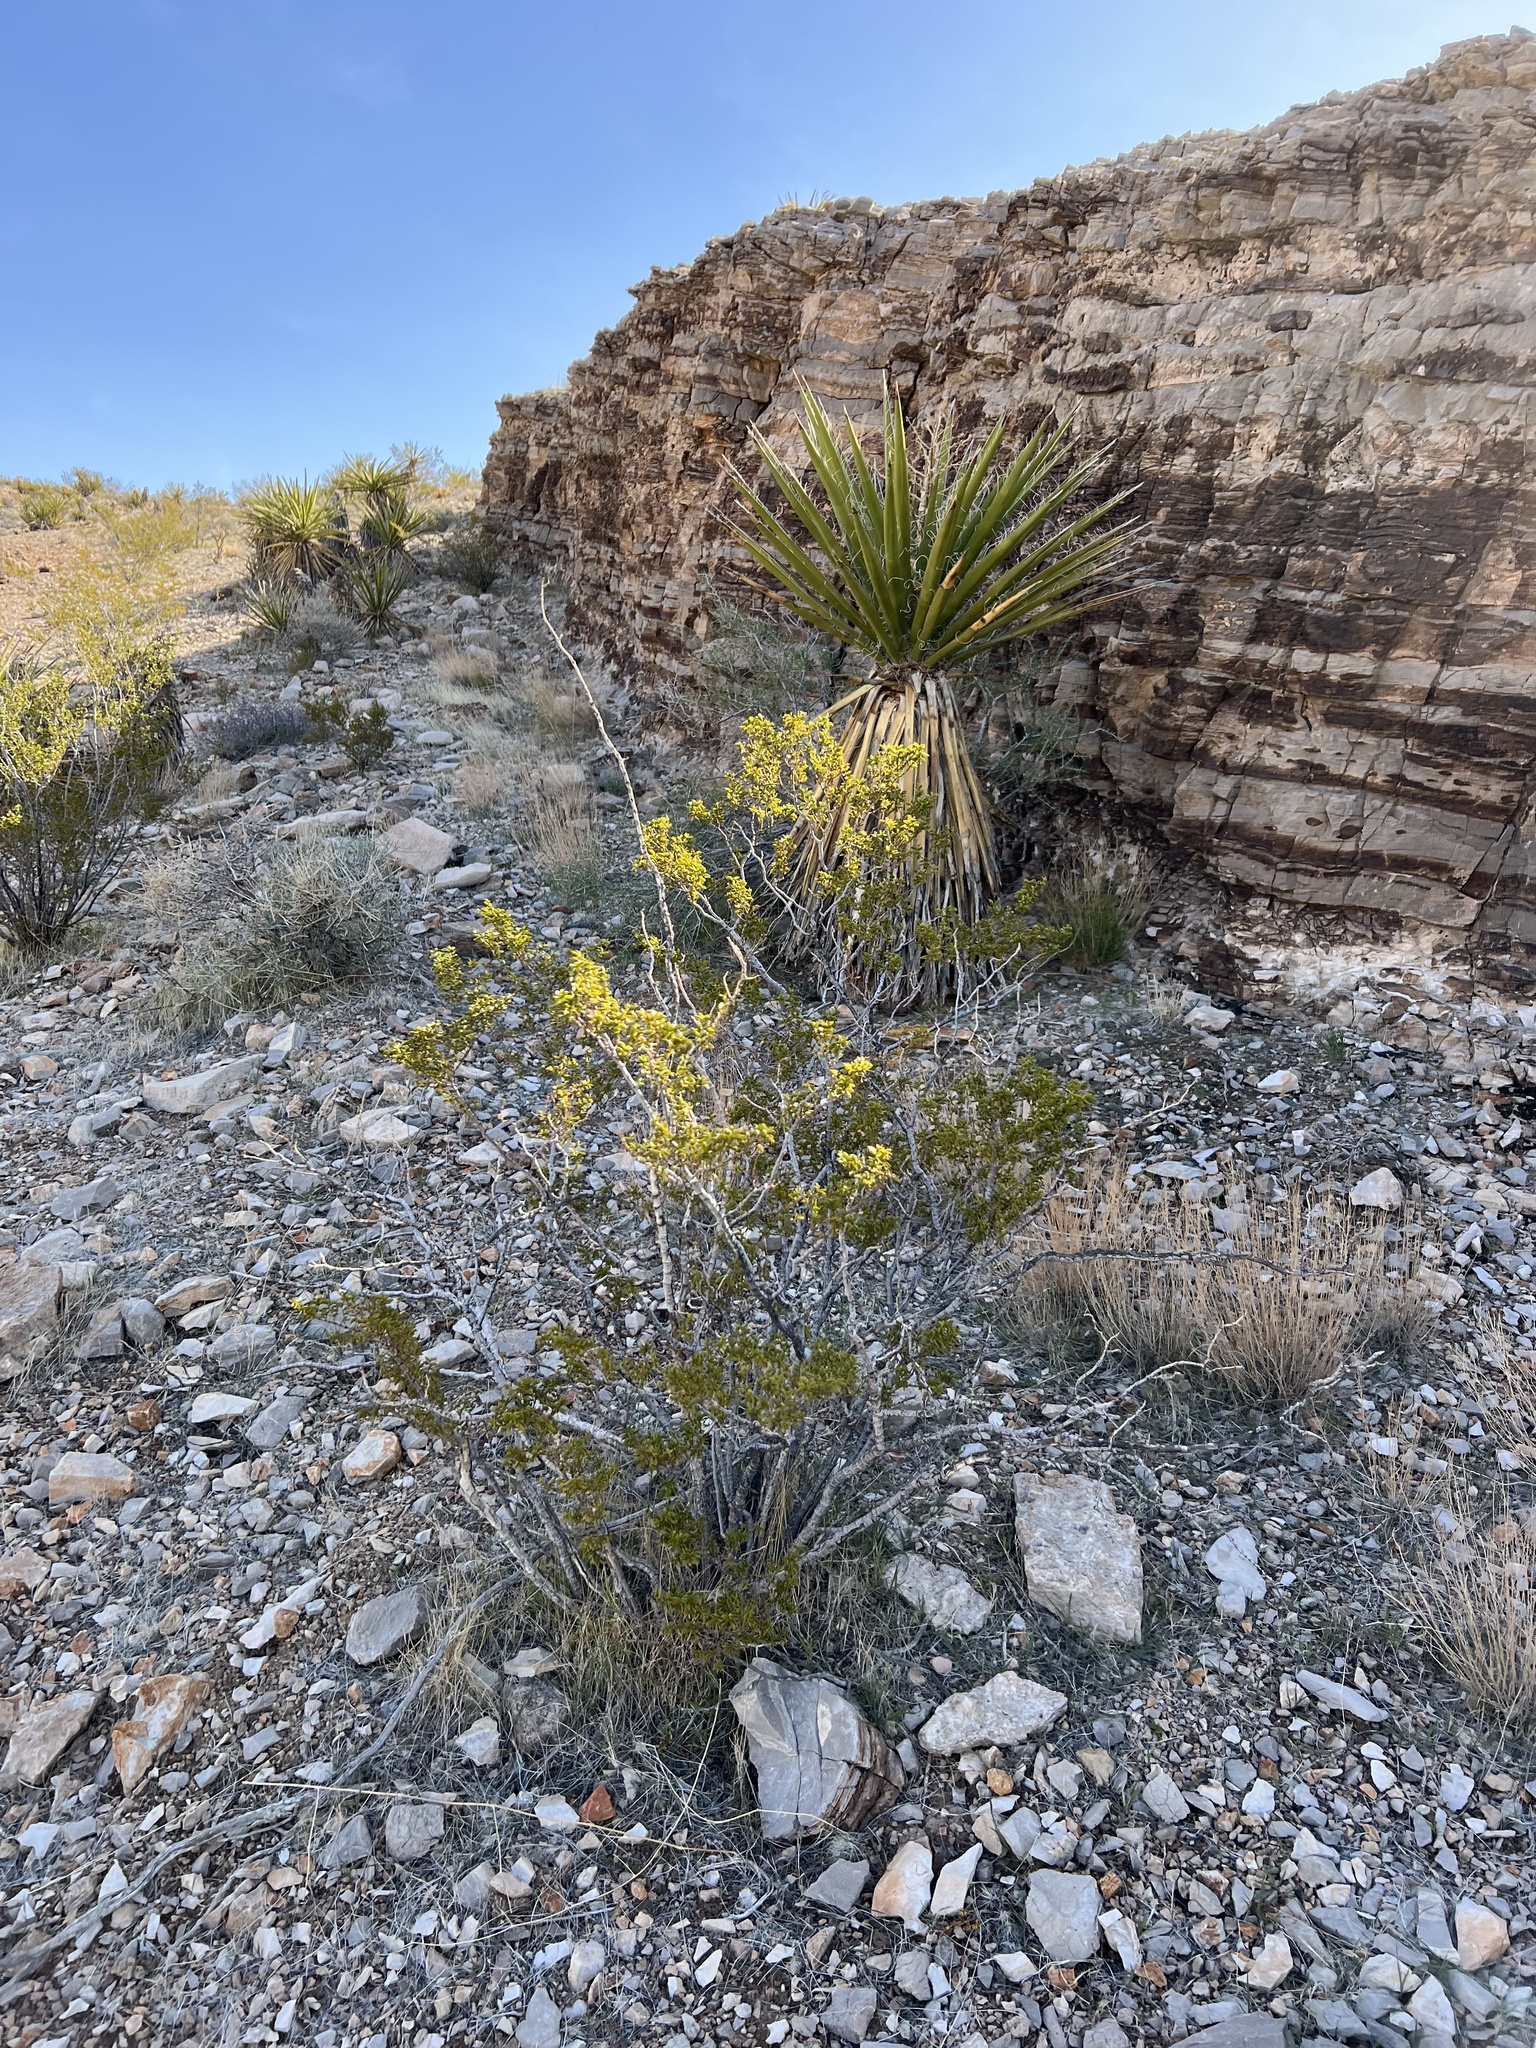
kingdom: Plantae
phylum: Tracheophyta
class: Magnoliopsida
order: Zygophyllales
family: Zygophyllaceae
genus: Larrea
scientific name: Larrea tridentata
